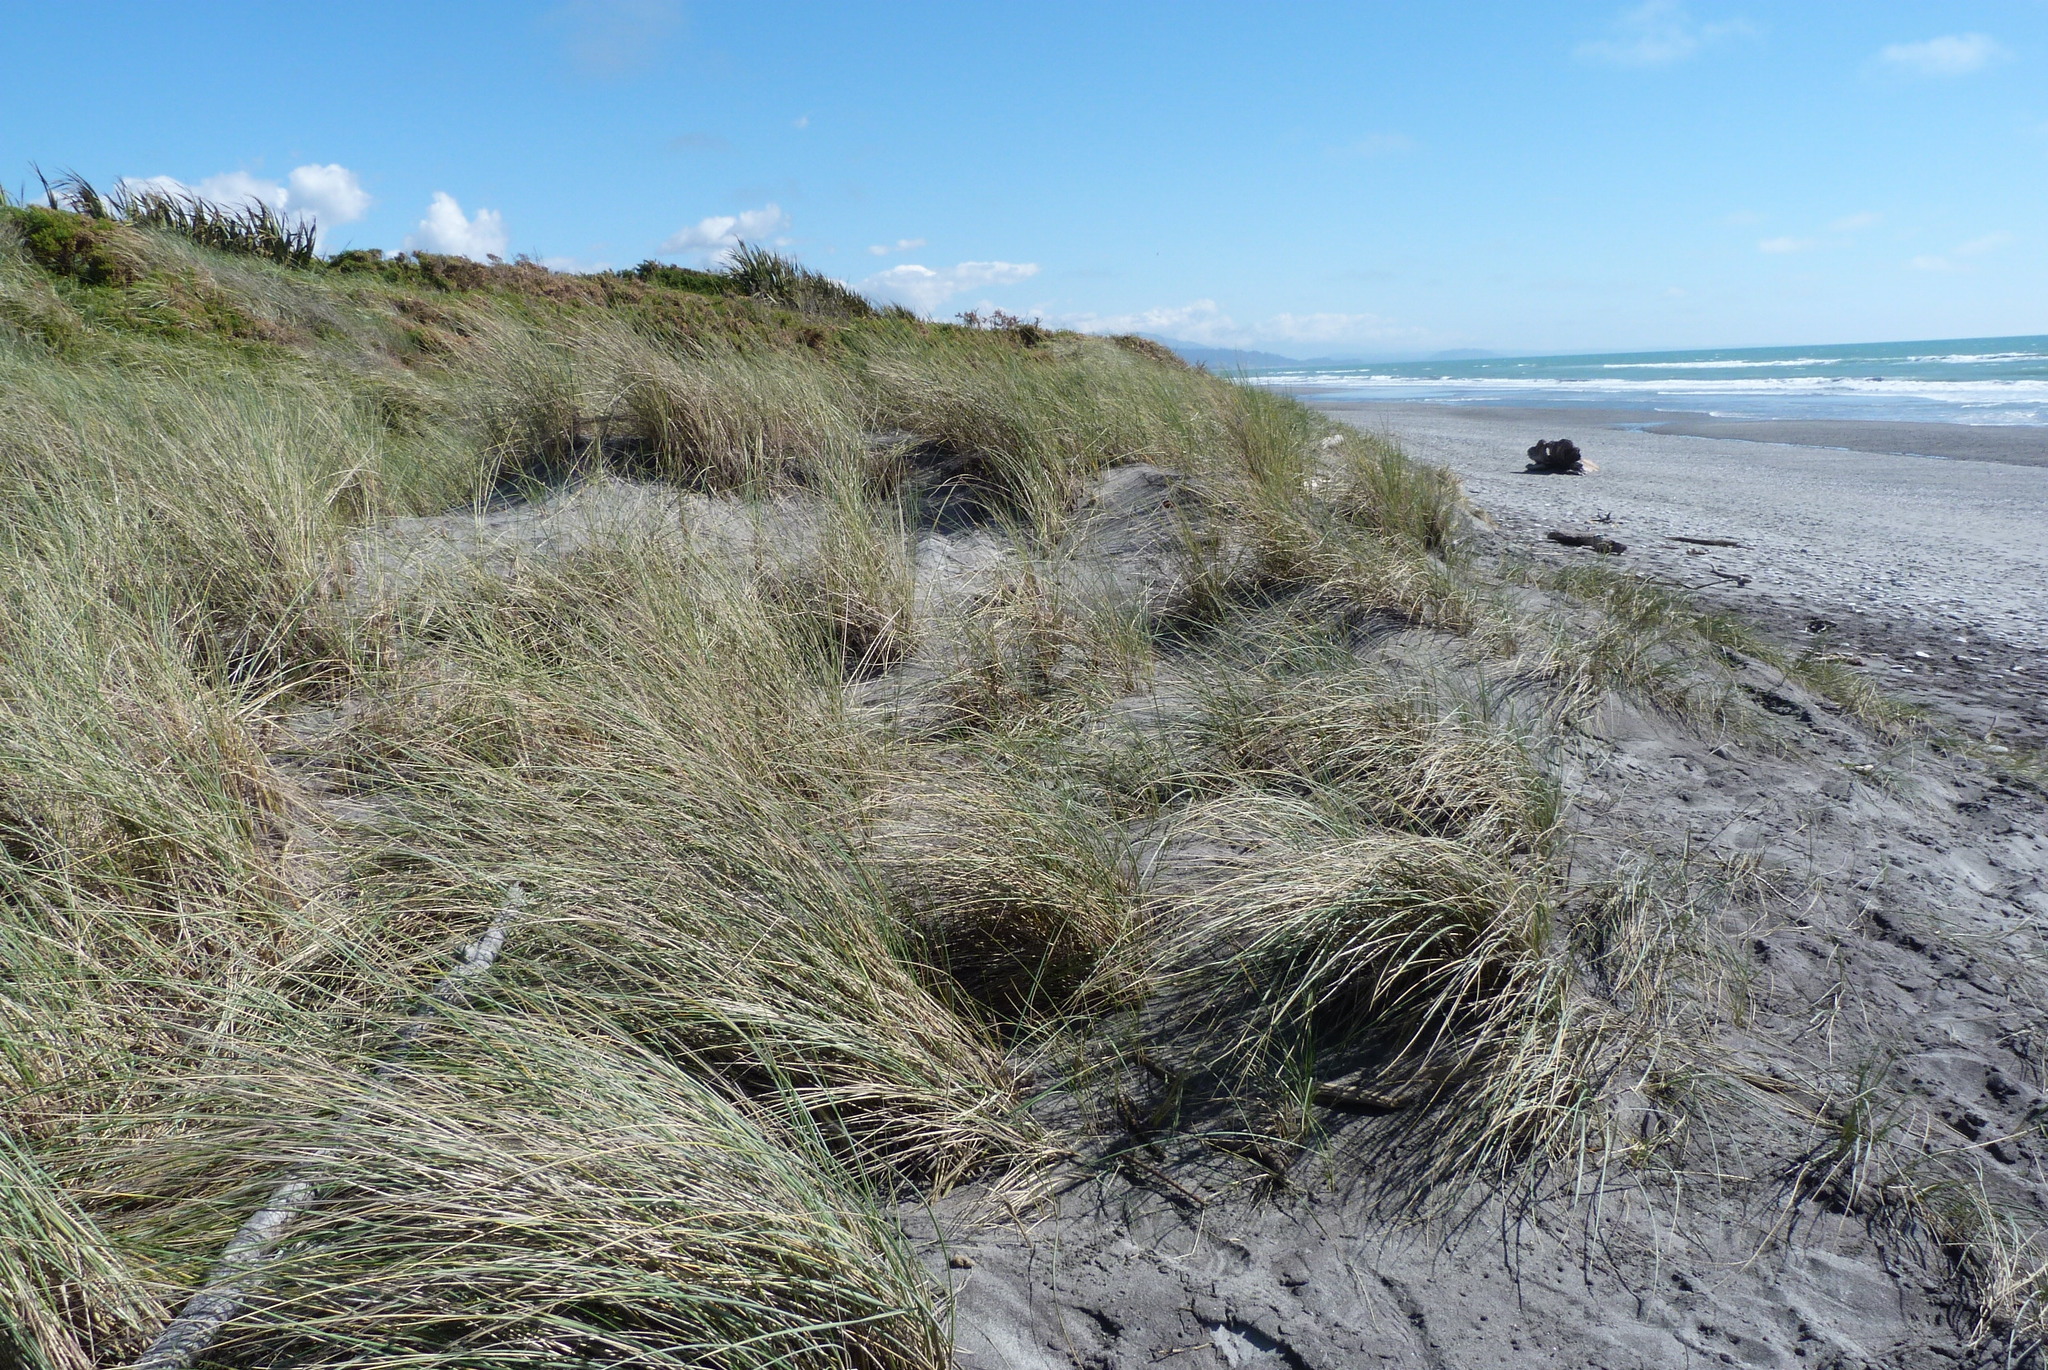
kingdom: Plantae
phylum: Tracheophyta
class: Liliopsida
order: Poales
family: Poaceae
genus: Calamagrostis
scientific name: Calamagrostis arenaria
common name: European beachgrass
